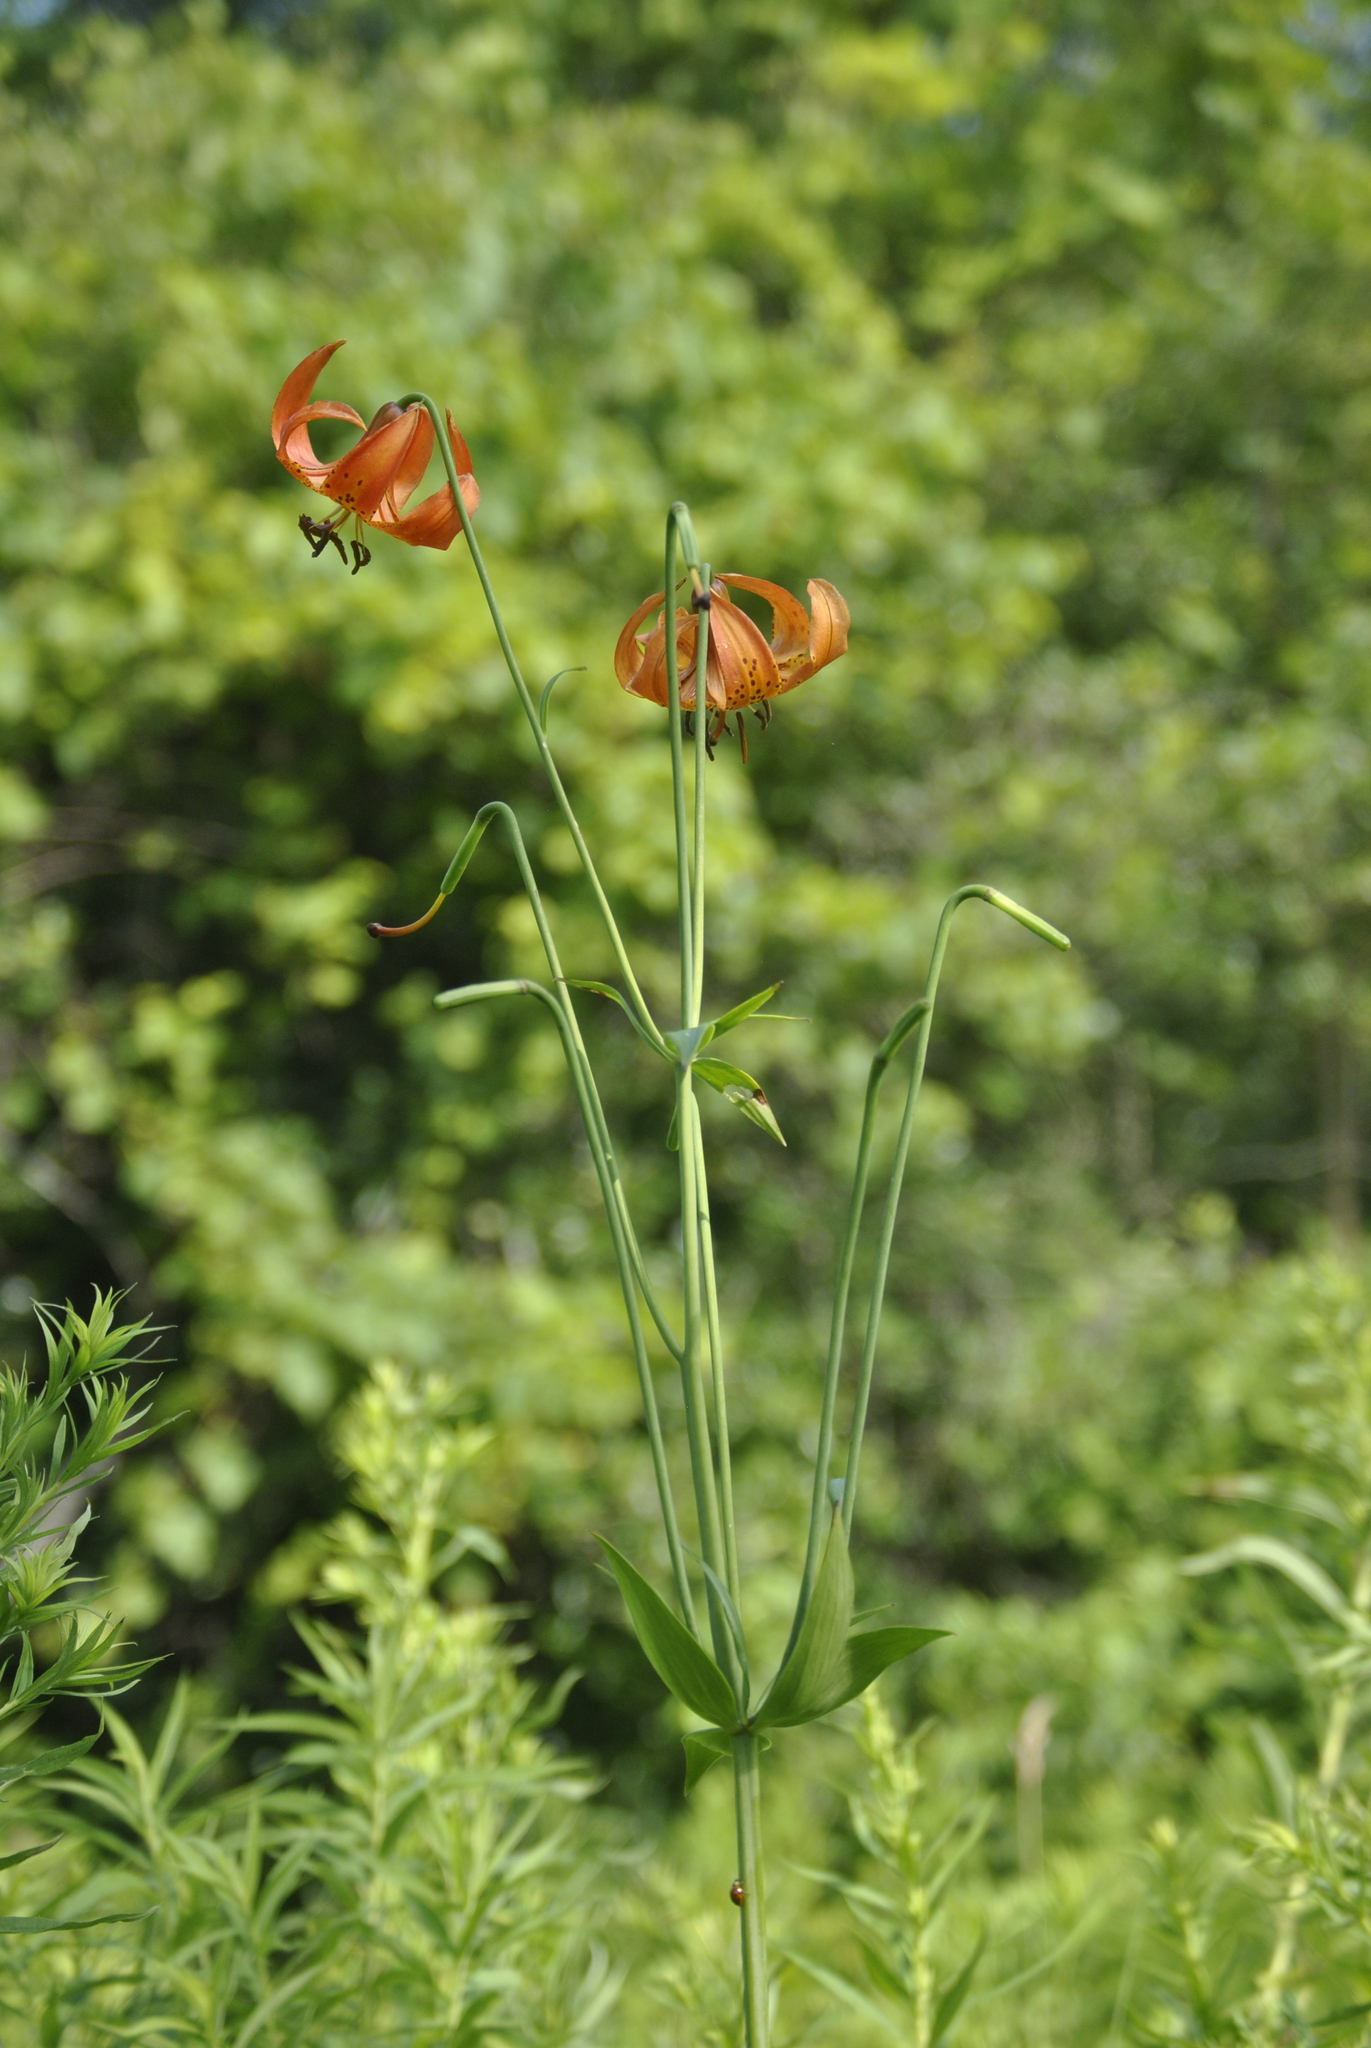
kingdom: Plantae
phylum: Tracheophyta
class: Liliopsida
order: Liliales
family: Liliaceae
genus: Lilium
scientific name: Lilium michiganense
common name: Michigan lily
